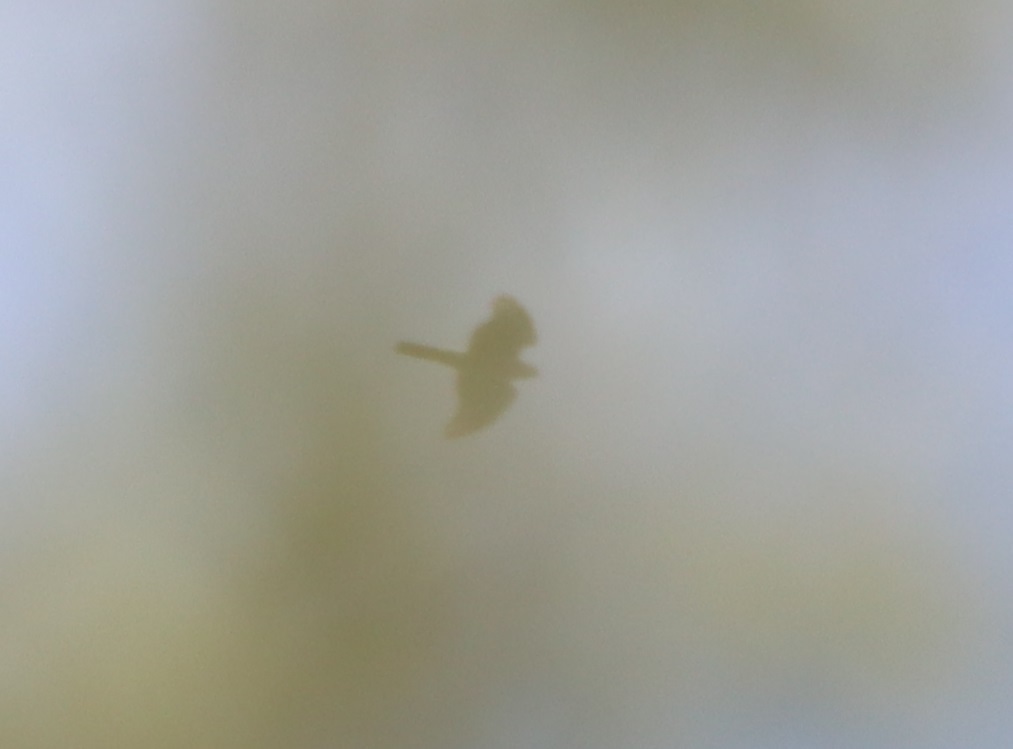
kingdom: Animalia
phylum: Chordata
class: Aves
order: Accipitriformes
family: Accipitridae
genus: Accipiter
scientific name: Accipiter cooperii
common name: Cooper's hawk
